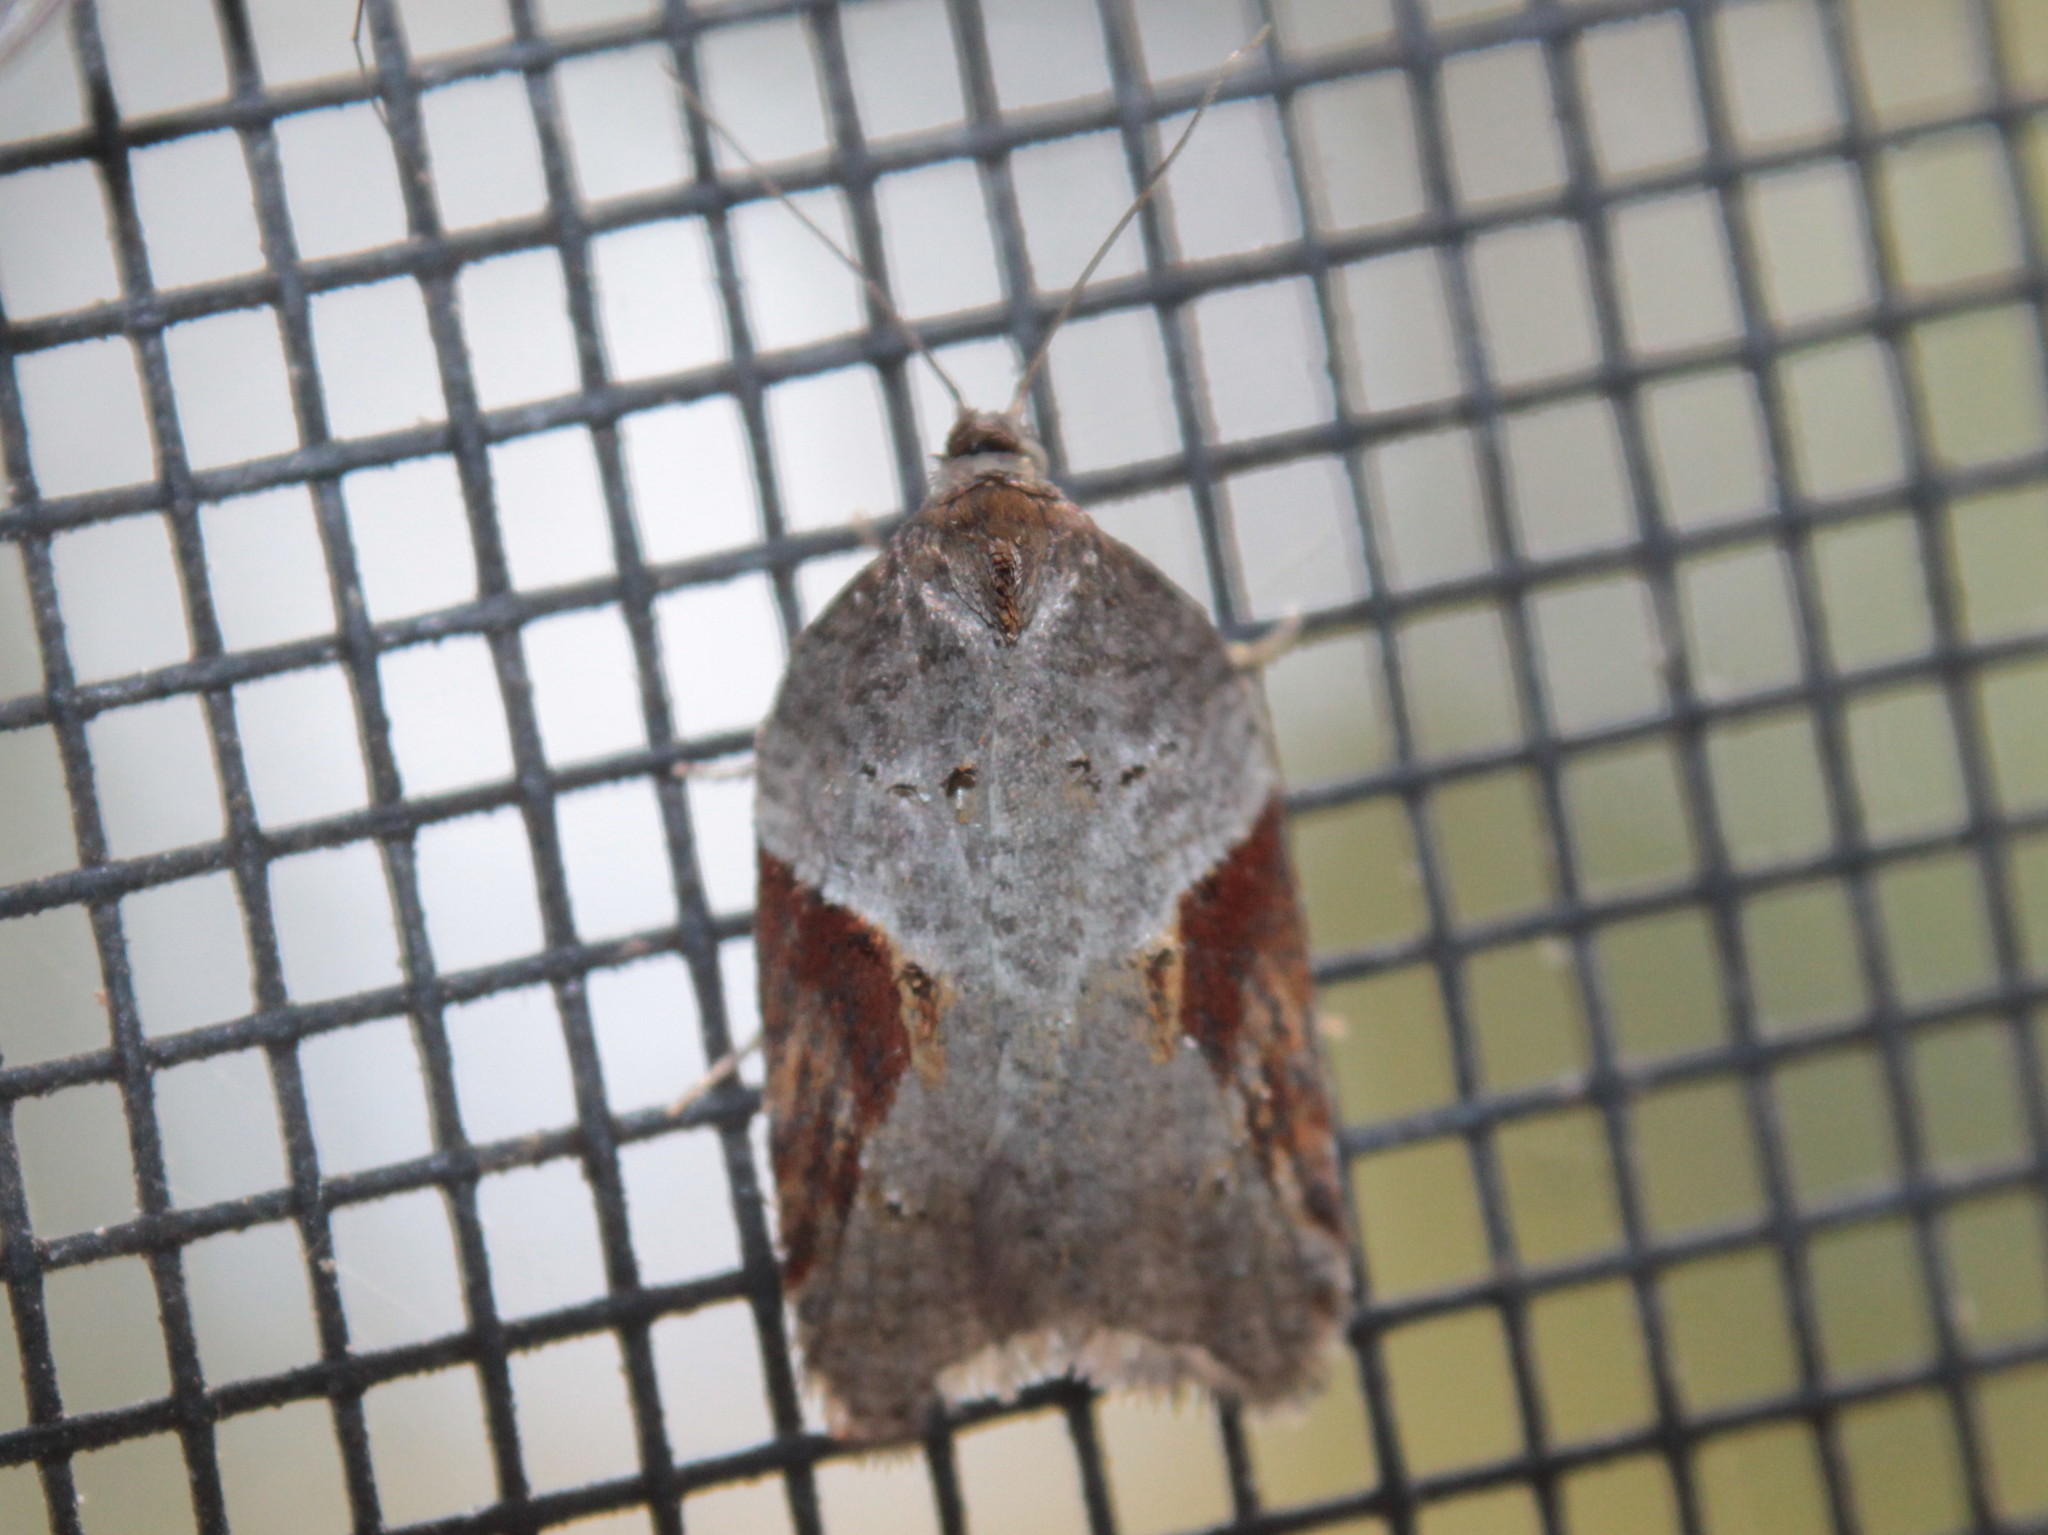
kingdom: Animalia
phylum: Arthropoda
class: Insecta
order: Lepidoptera
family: Tortricidae
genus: Acleris
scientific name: Acleris macdunnoughi
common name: Macdunnough's acleris
